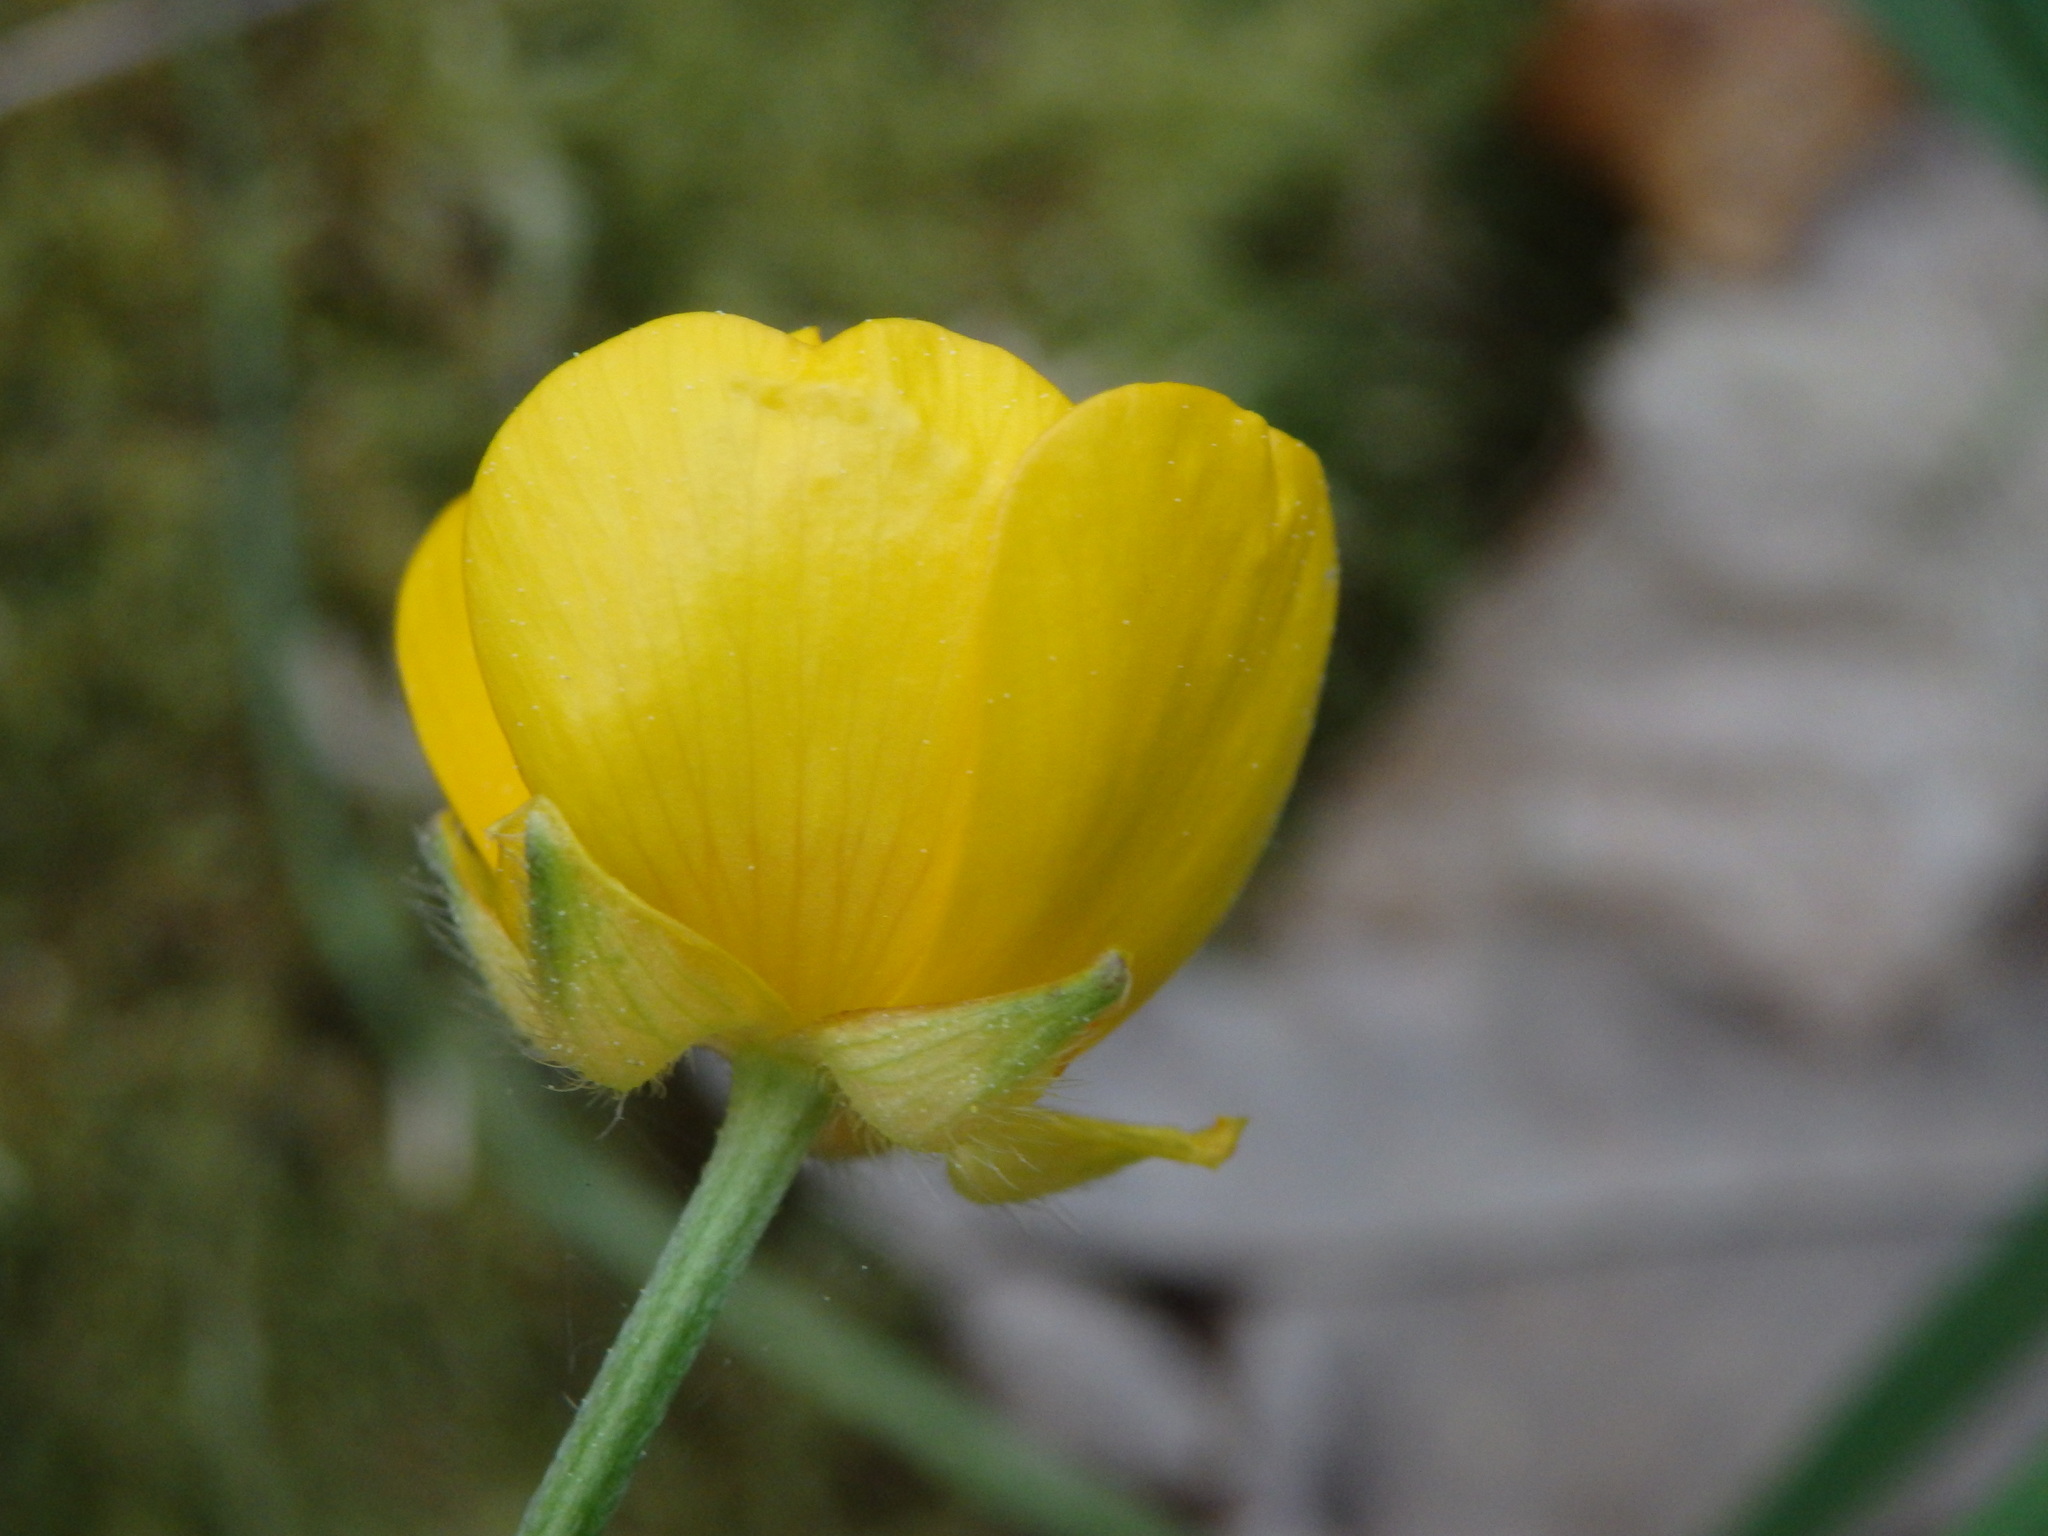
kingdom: Plantae
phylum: Tracheophyta
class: Magnoliopsida
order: Ranunculales
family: Ranunculaceae
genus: Ranunculus
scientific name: Ranunculus repens
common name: Creeping buttercup
